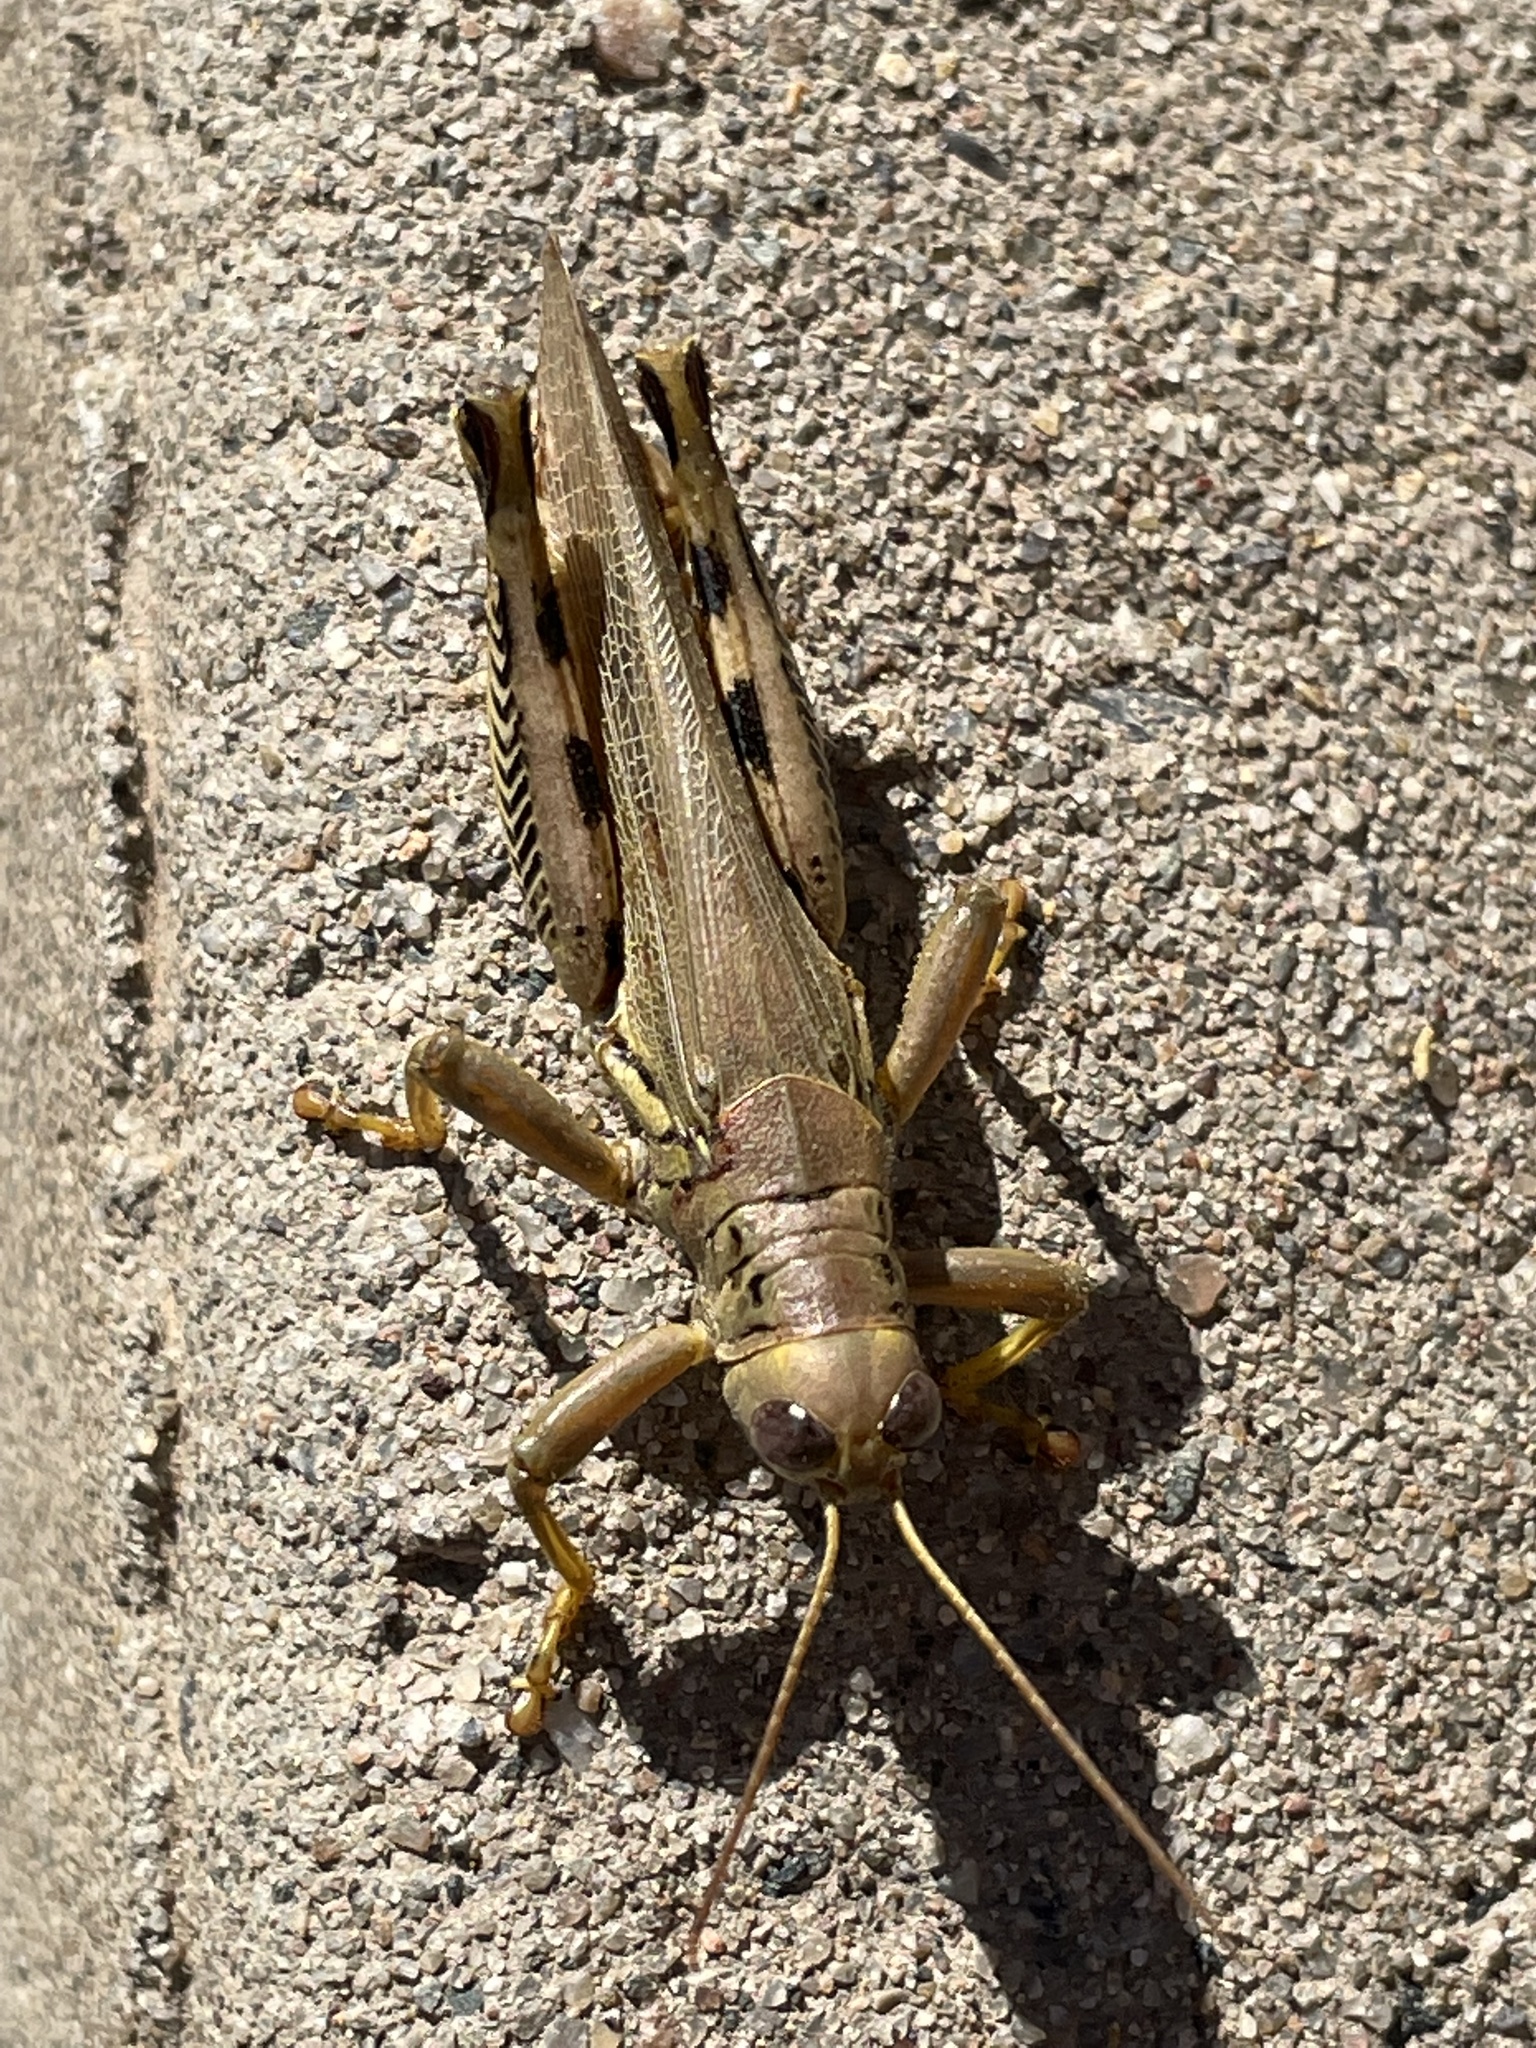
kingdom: Animalia
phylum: Arthropoda
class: Insecta
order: Orthoptera
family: Acrididae
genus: Melanoplus
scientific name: Melanoplus differentialis
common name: Differential grasshopper
